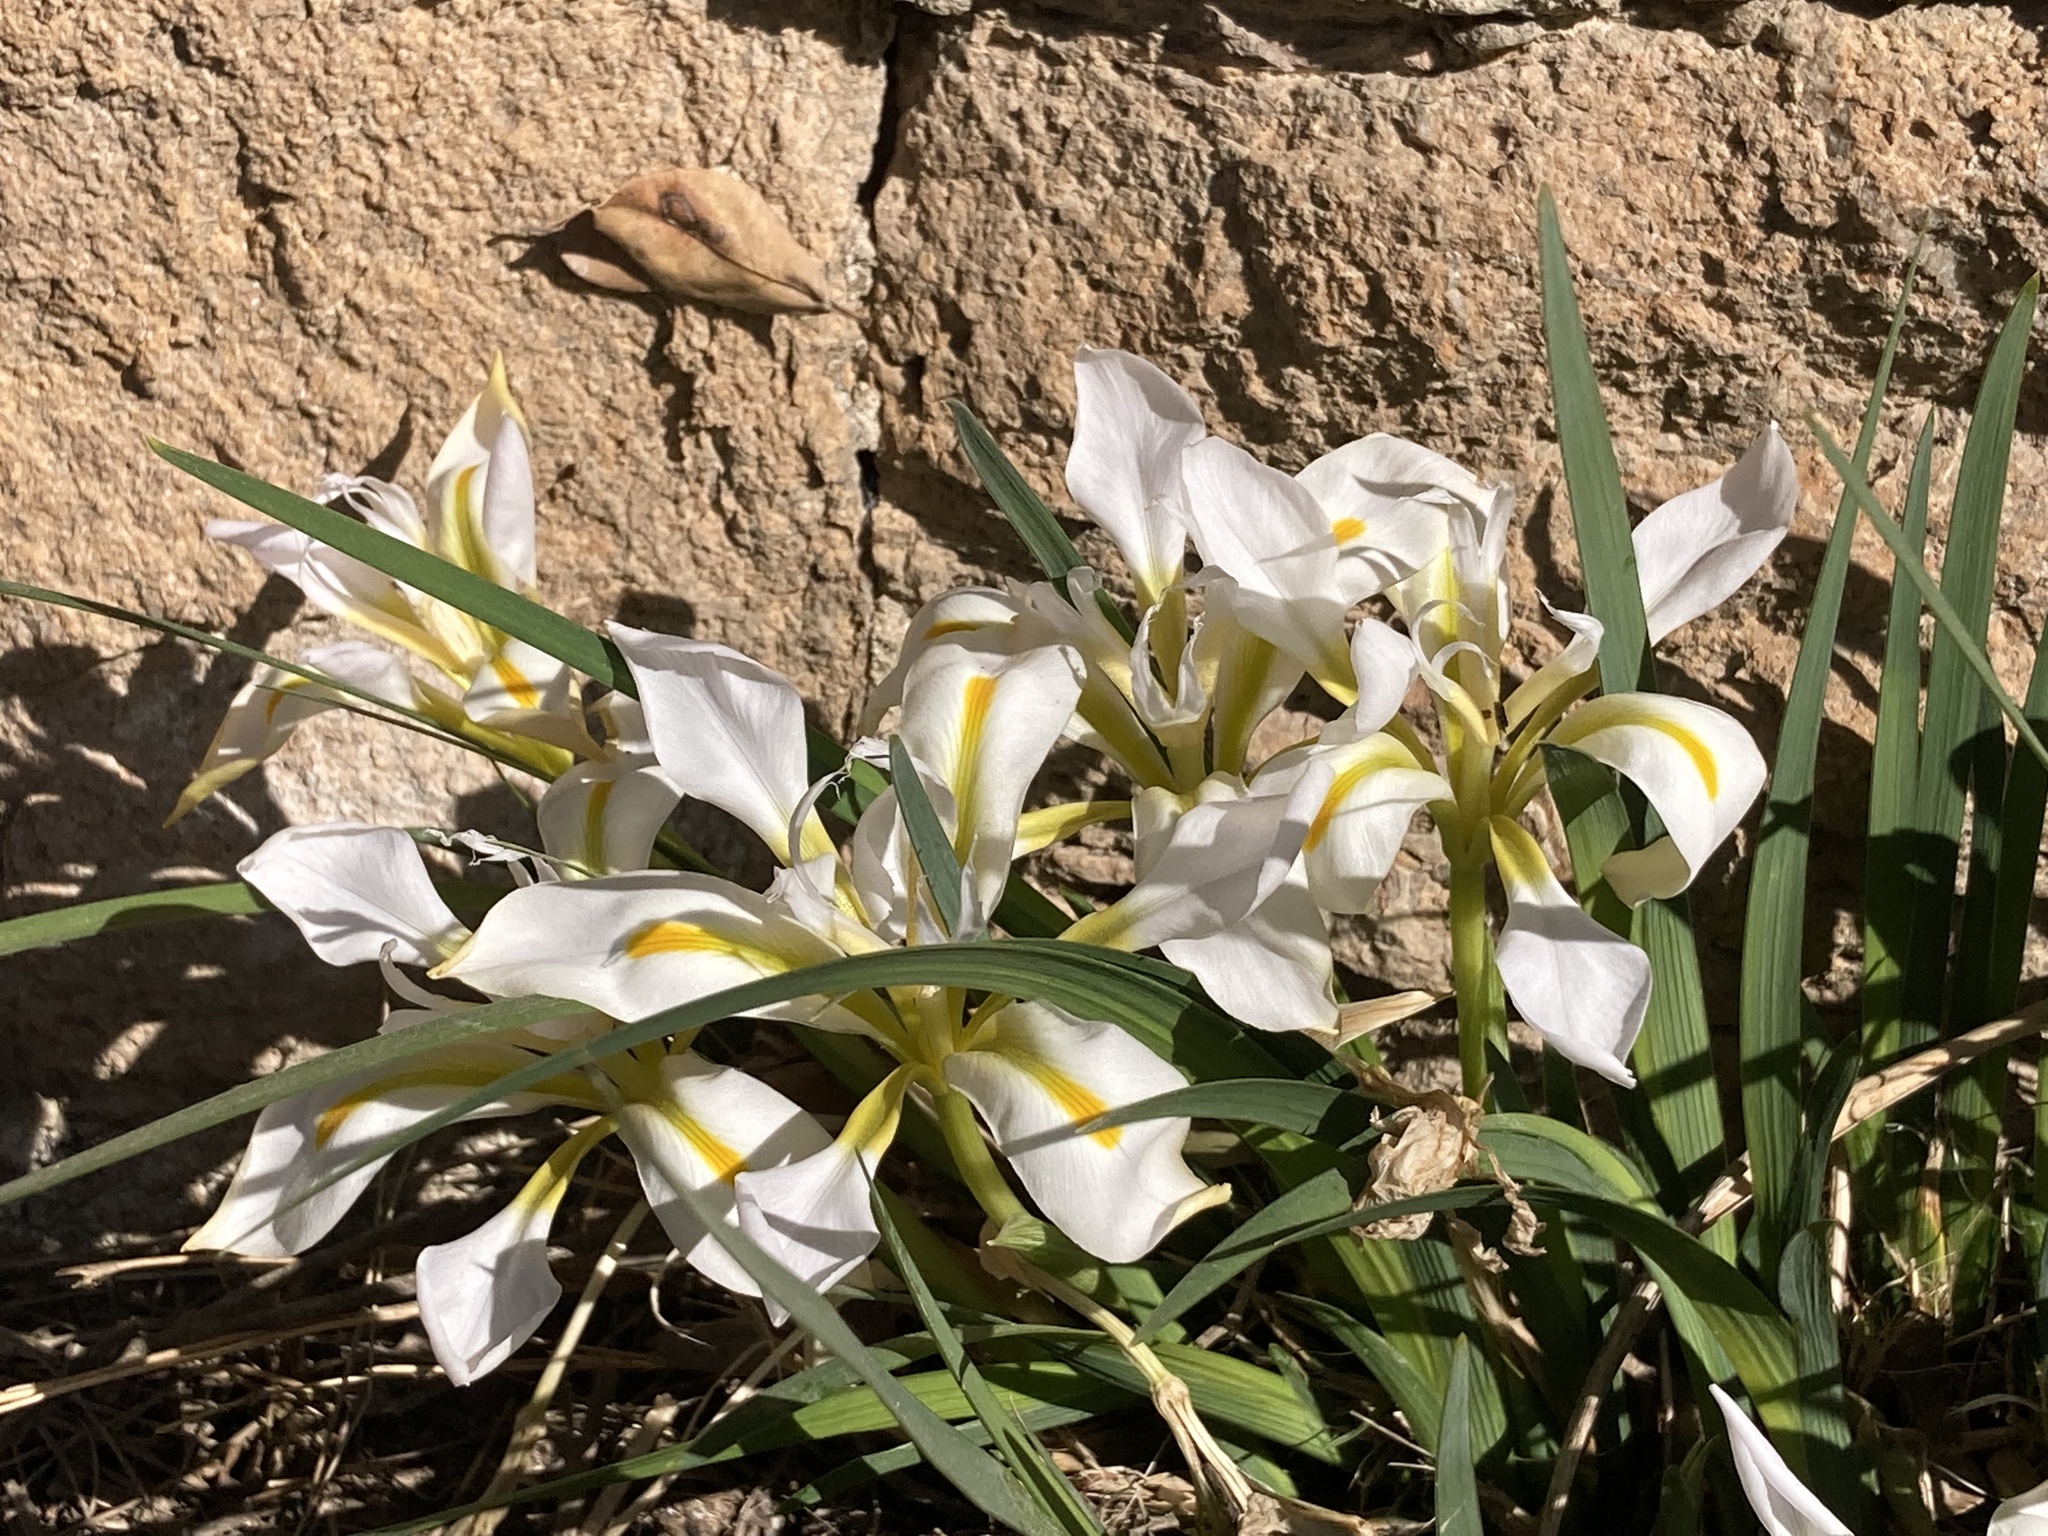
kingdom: Plantae
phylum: Tracheophyta
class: Liliopsida
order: Asparagales
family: Iridaceae
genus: Iris
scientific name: Iris unguicularis
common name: Algerian iris
